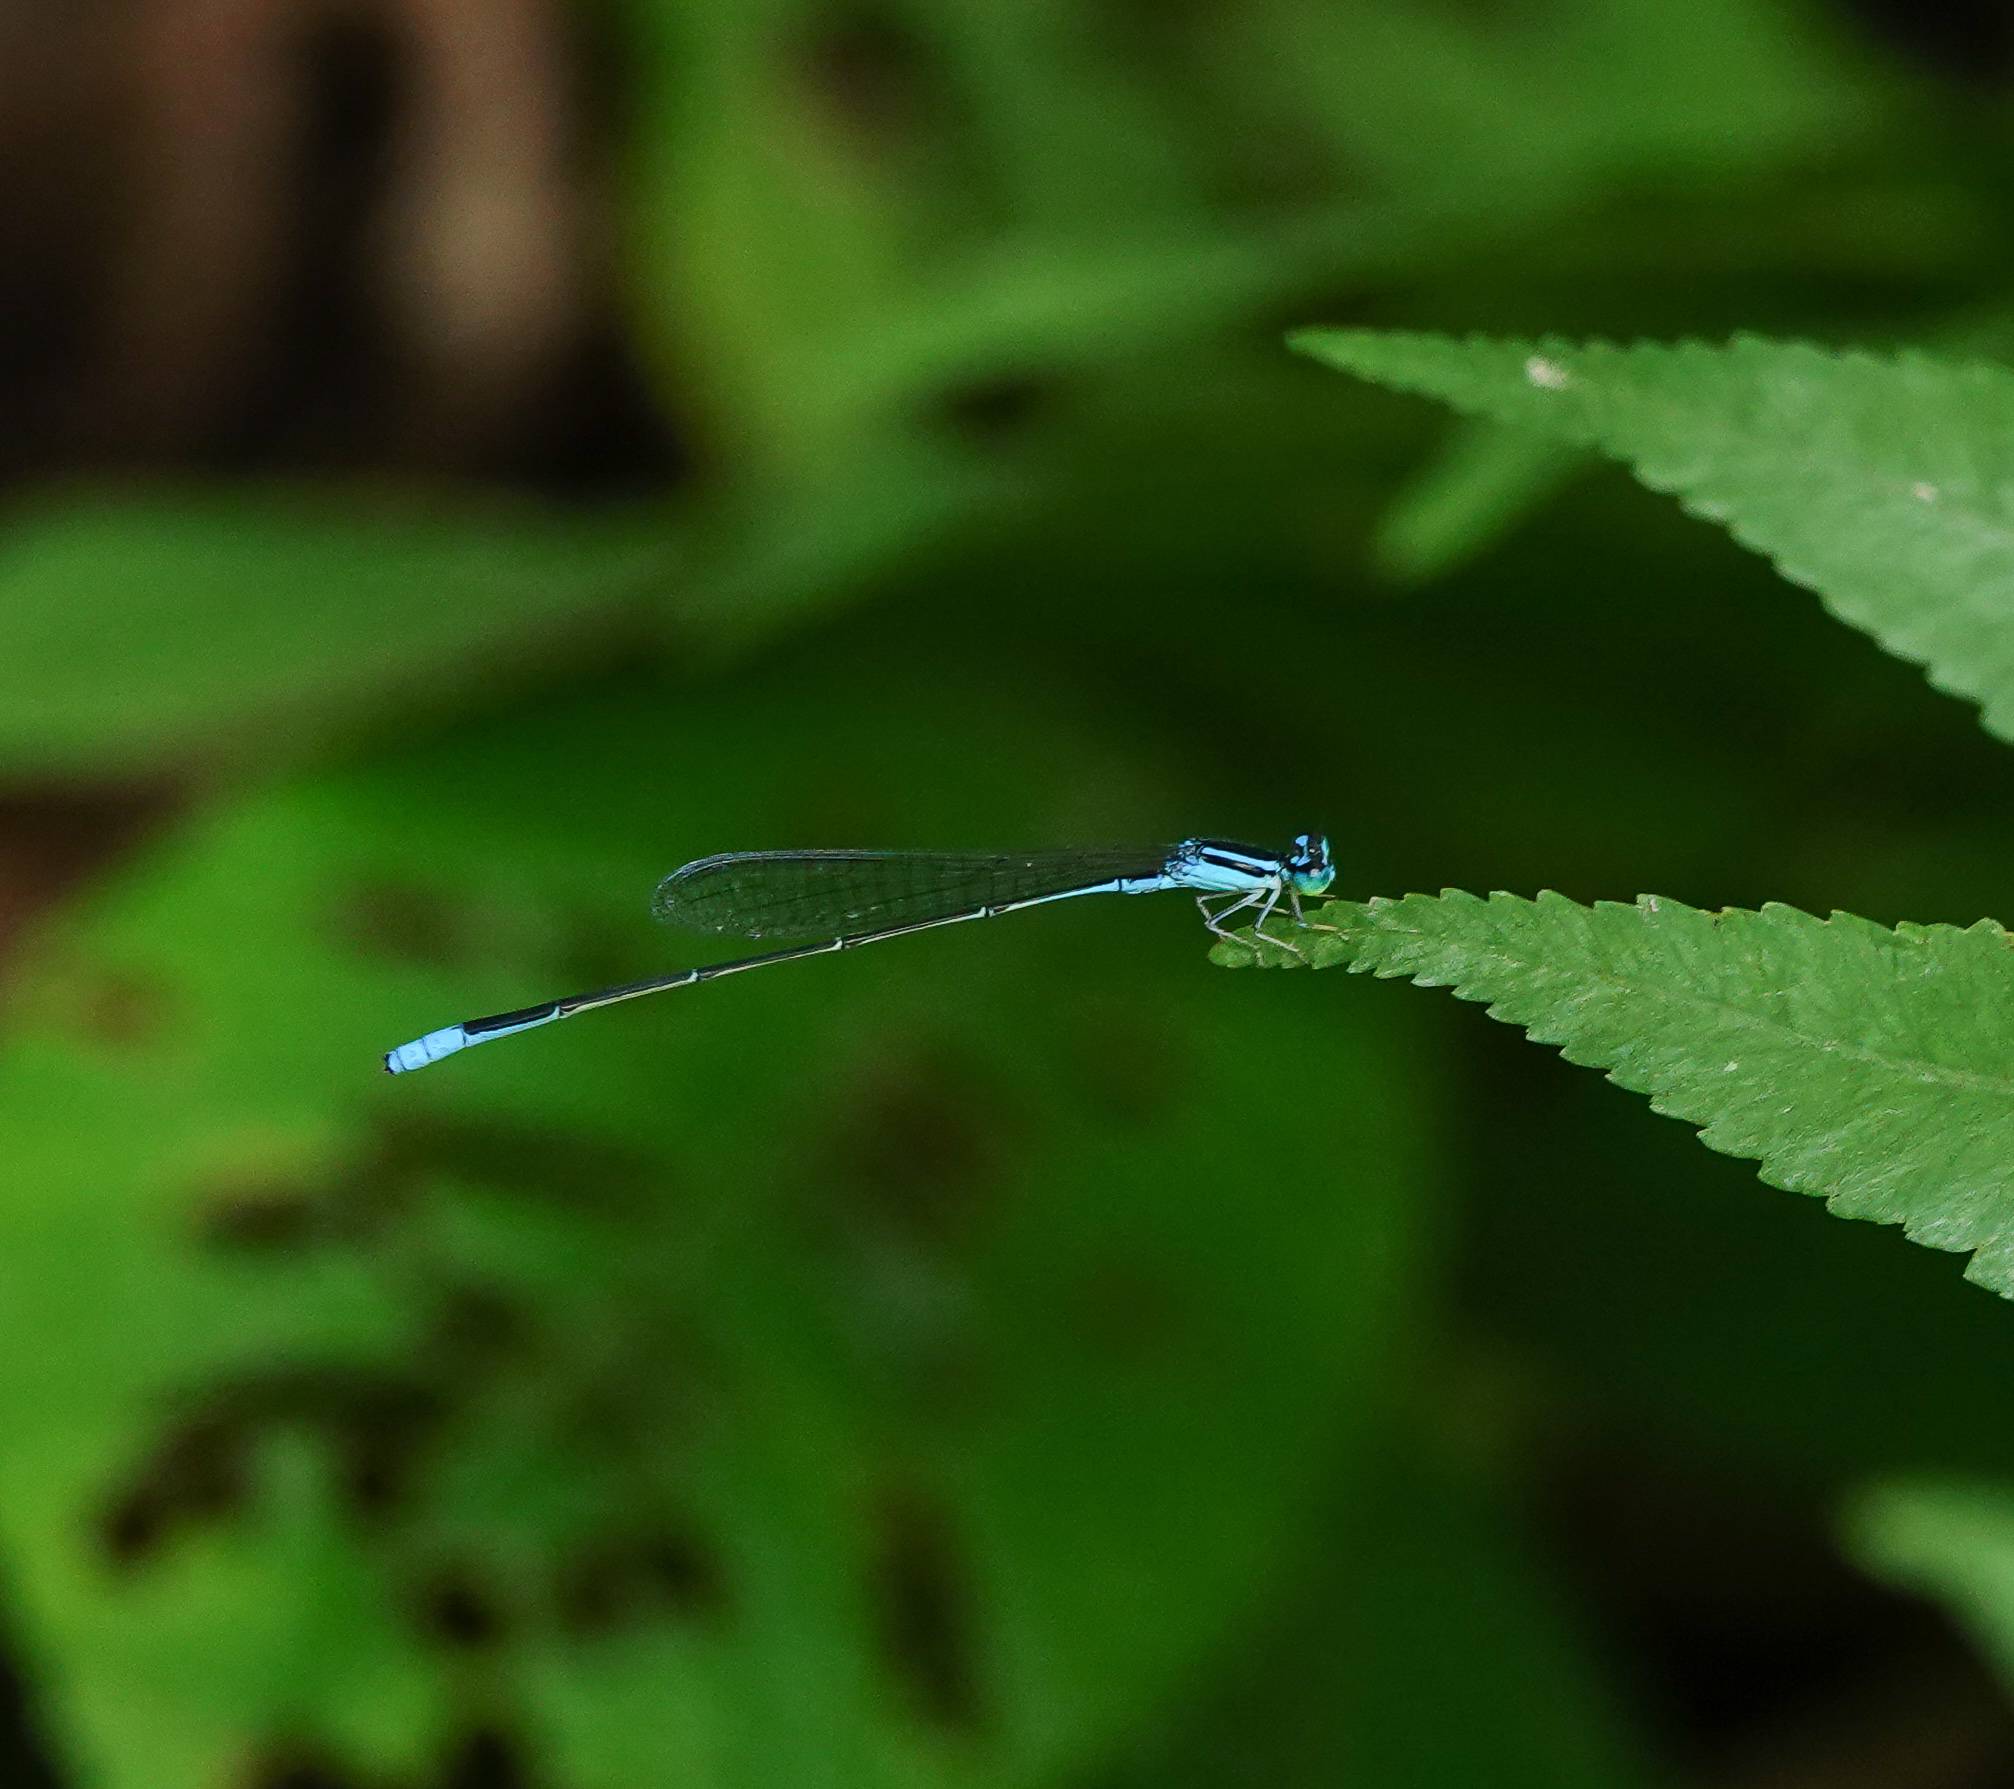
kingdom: Animalia
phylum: Arthropoda
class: Insecta
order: Odonata
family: Coenagrionidae
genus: Aciagrion
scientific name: Aciagrion hisopa
